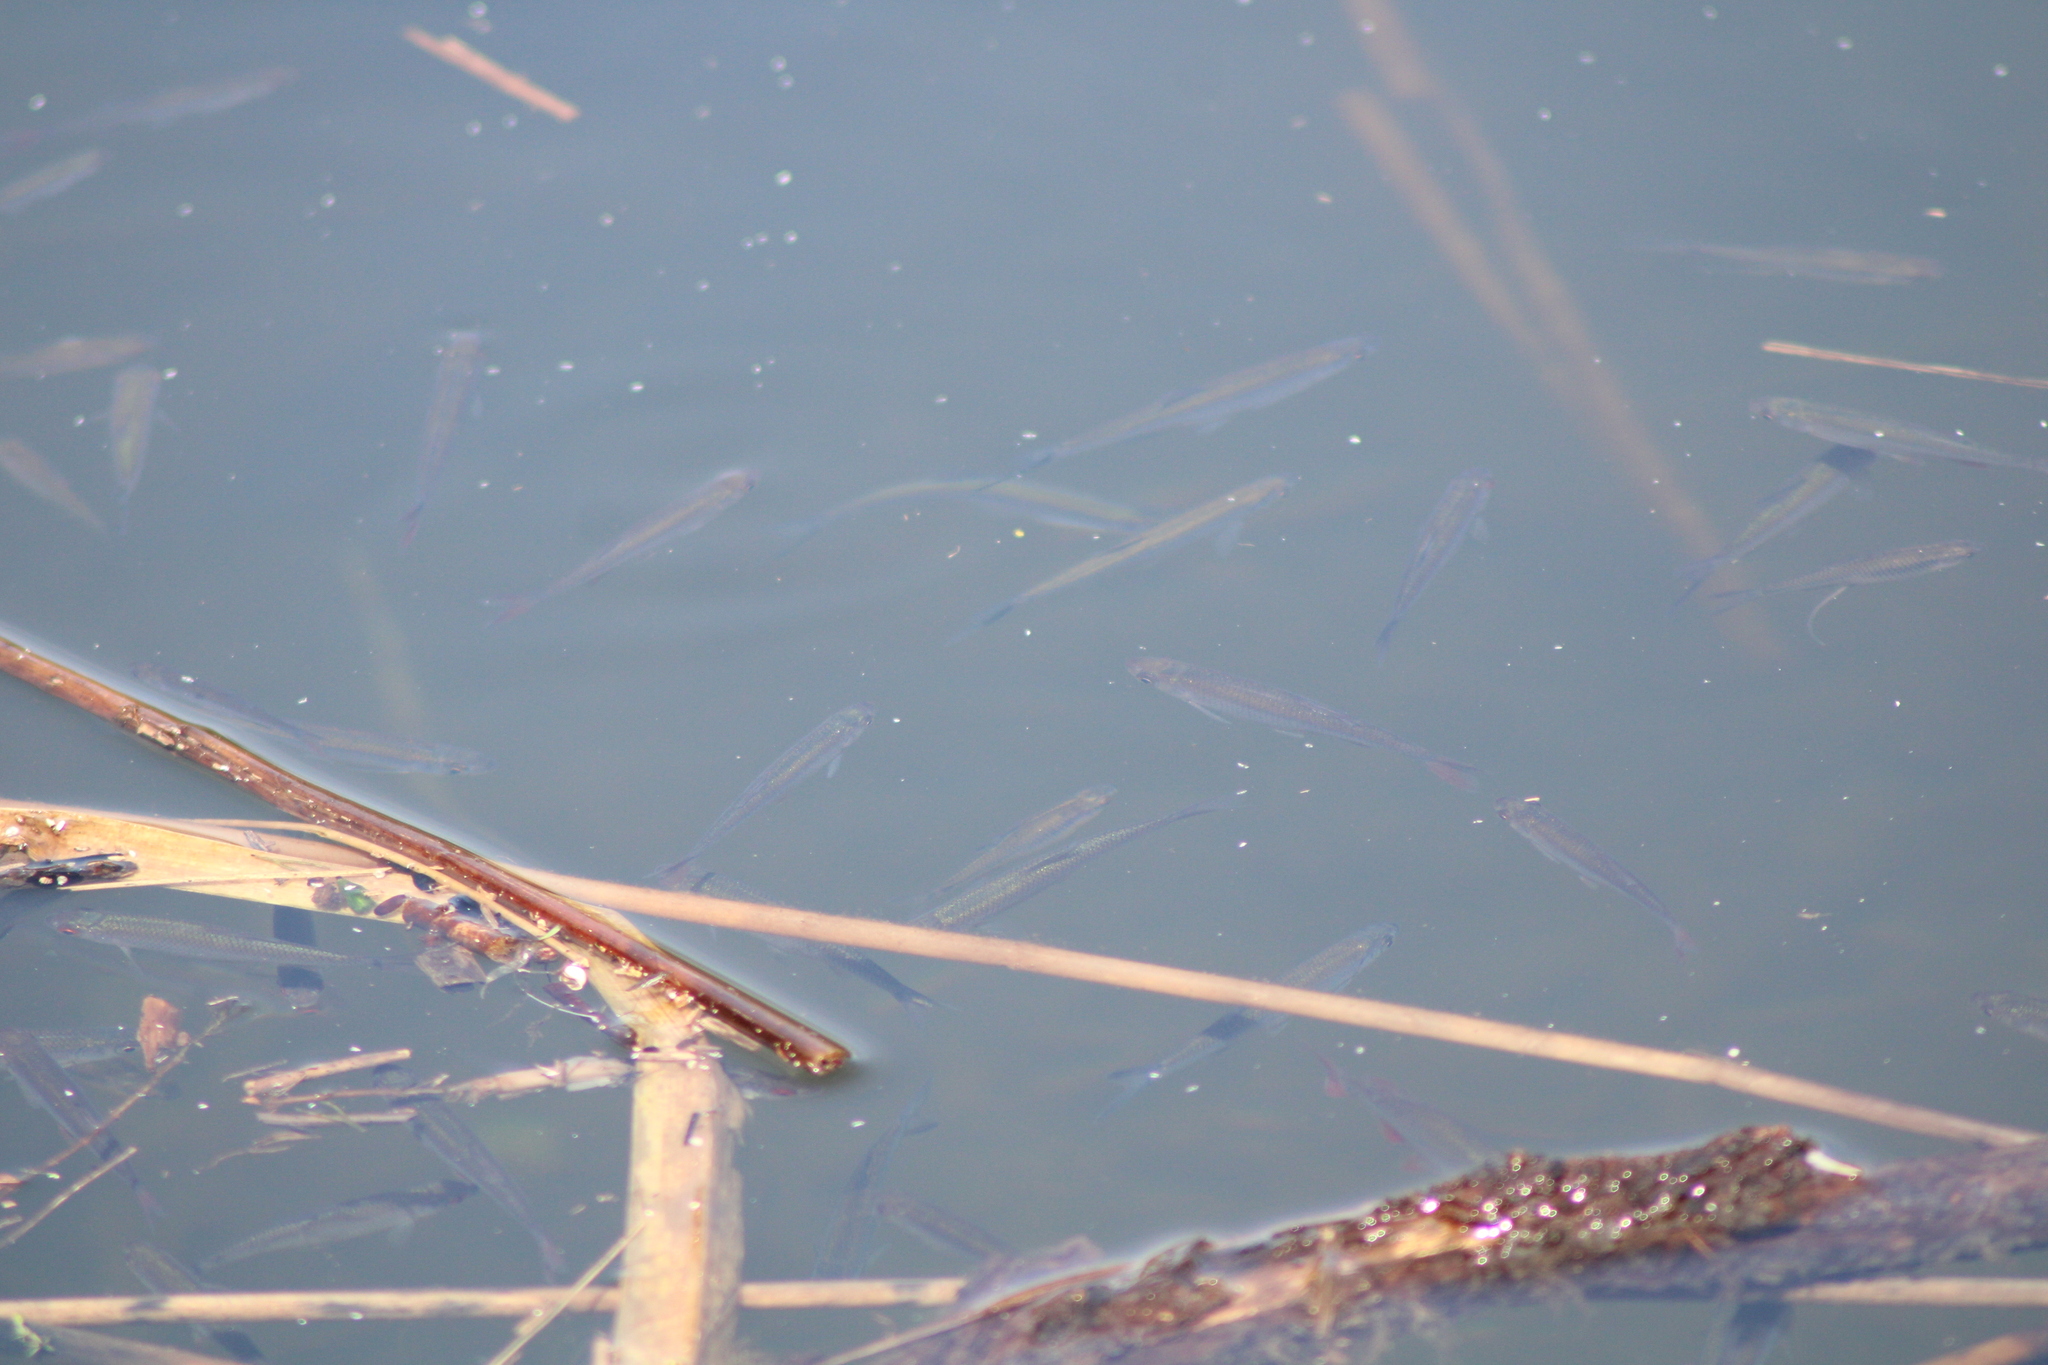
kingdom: Animalia
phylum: Chordata
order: Cypriniformes
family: Cyprinidae
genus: Alburnus
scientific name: Alburnus alburnus
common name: Bleak
